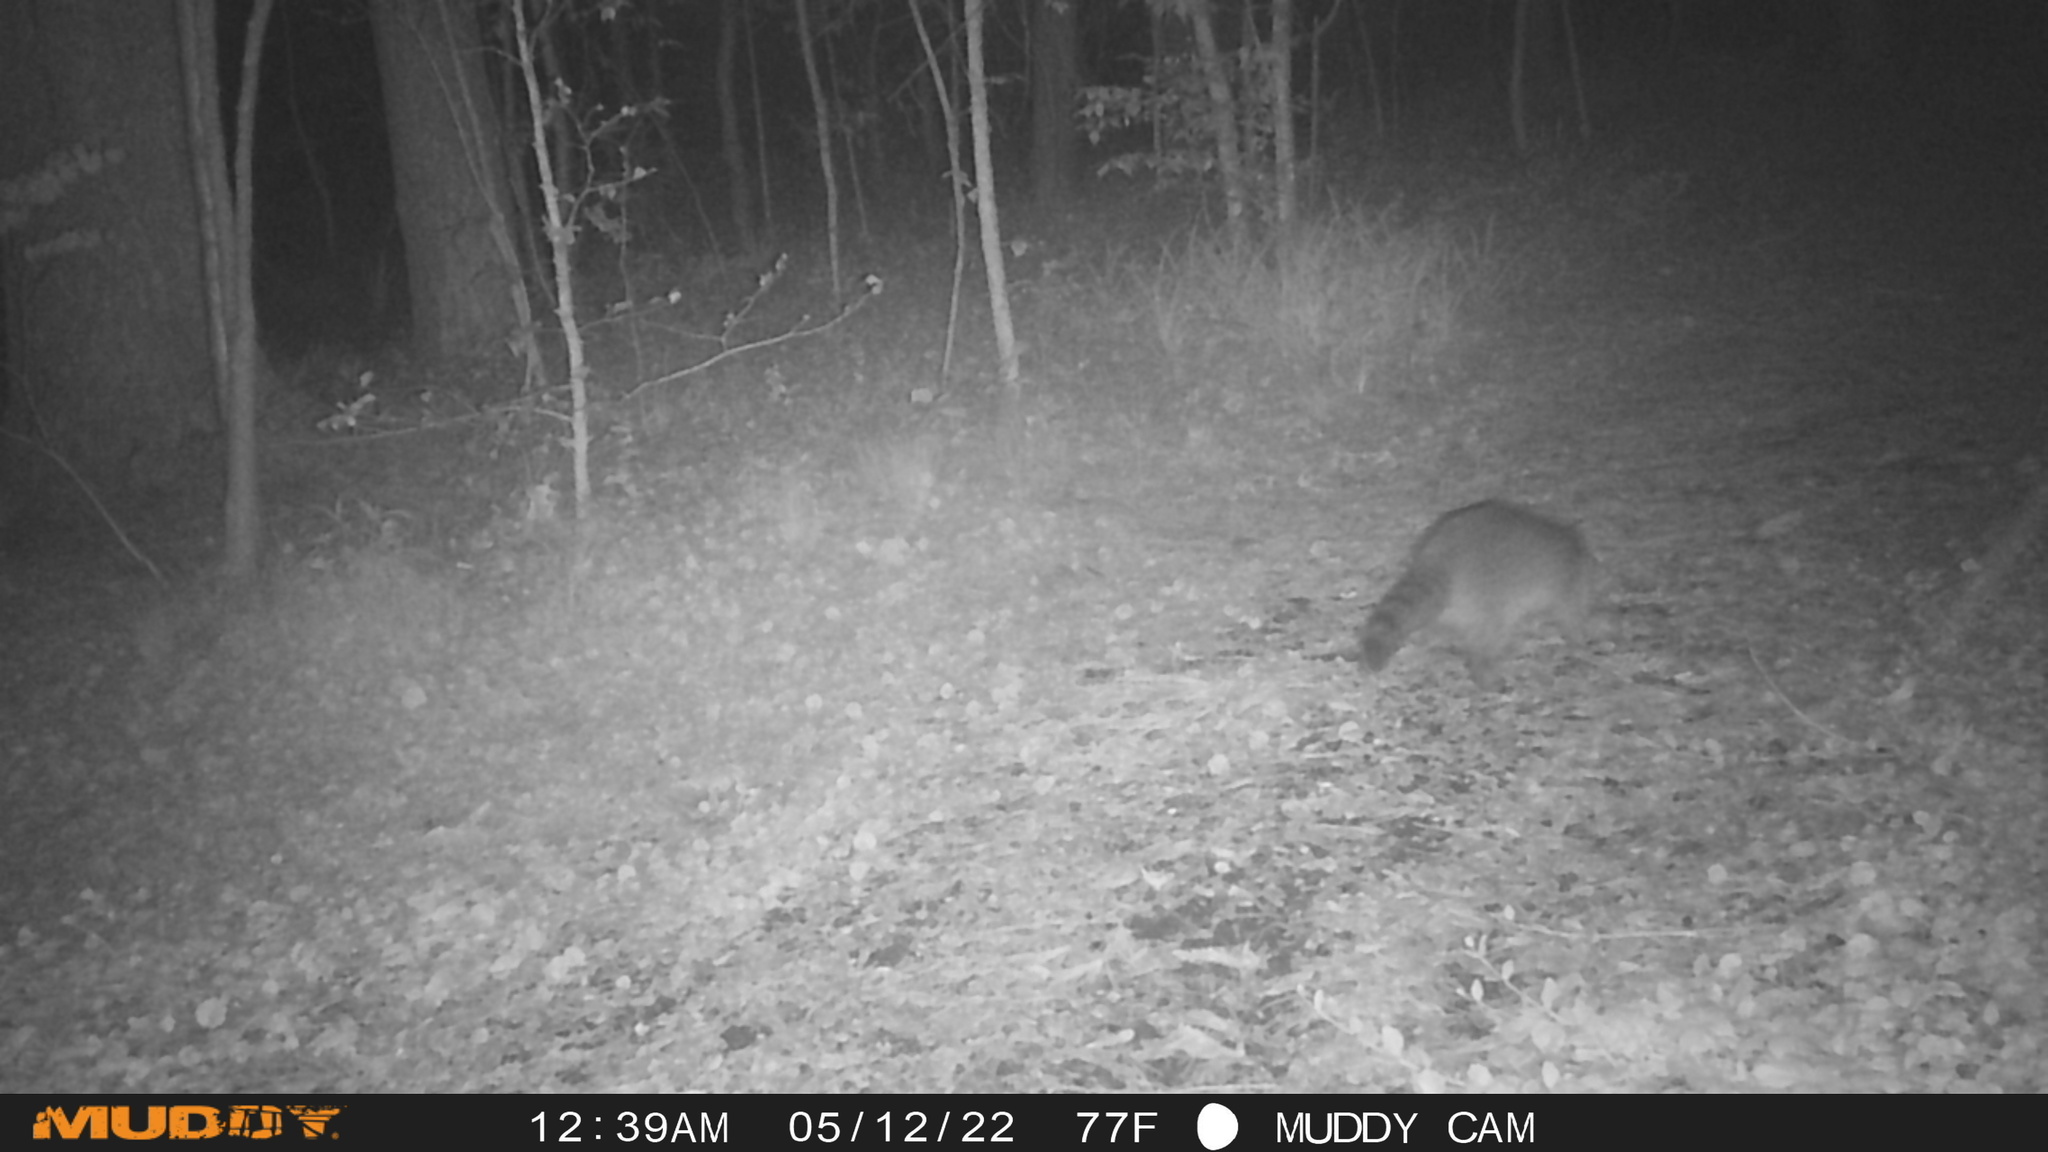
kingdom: Animalia
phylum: Chordata
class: Mammalia
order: Carnivora
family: Procyonidae
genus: Procyon
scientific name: Procyon lotor
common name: Raccoon
